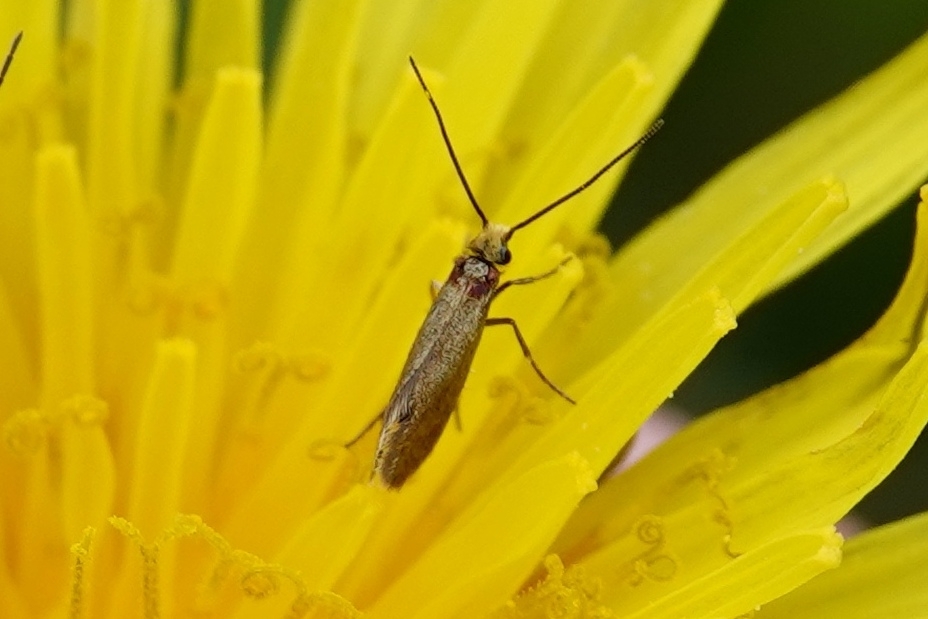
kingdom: Animalia
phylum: Arthropoda
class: Insecta
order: Lepidoptera
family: Micropterigidae
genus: Micropterix
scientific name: Micropterix calthella
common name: Plain gold
